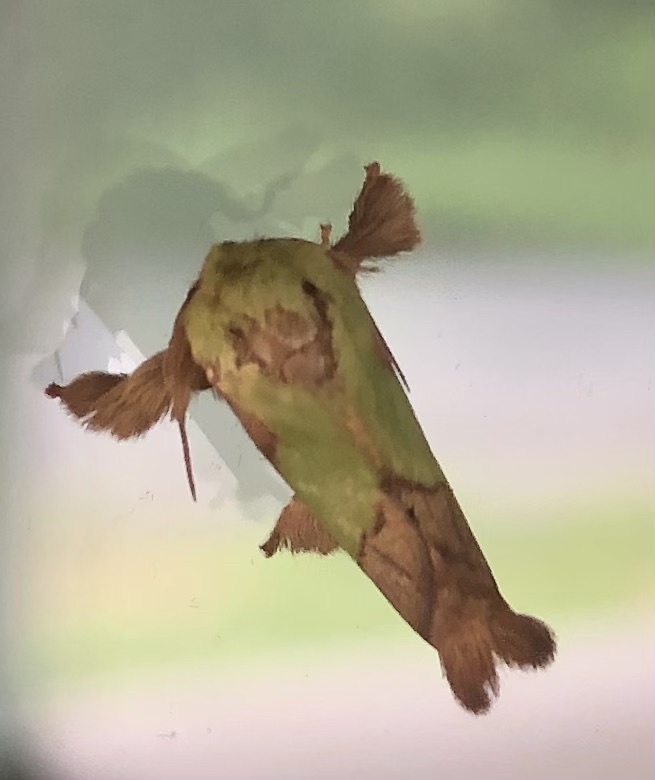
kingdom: Animalia
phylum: Arthropoda
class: Insecta
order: Lepidoptera
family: Limacodidae
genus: Parasa
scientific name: Parasa chloris
